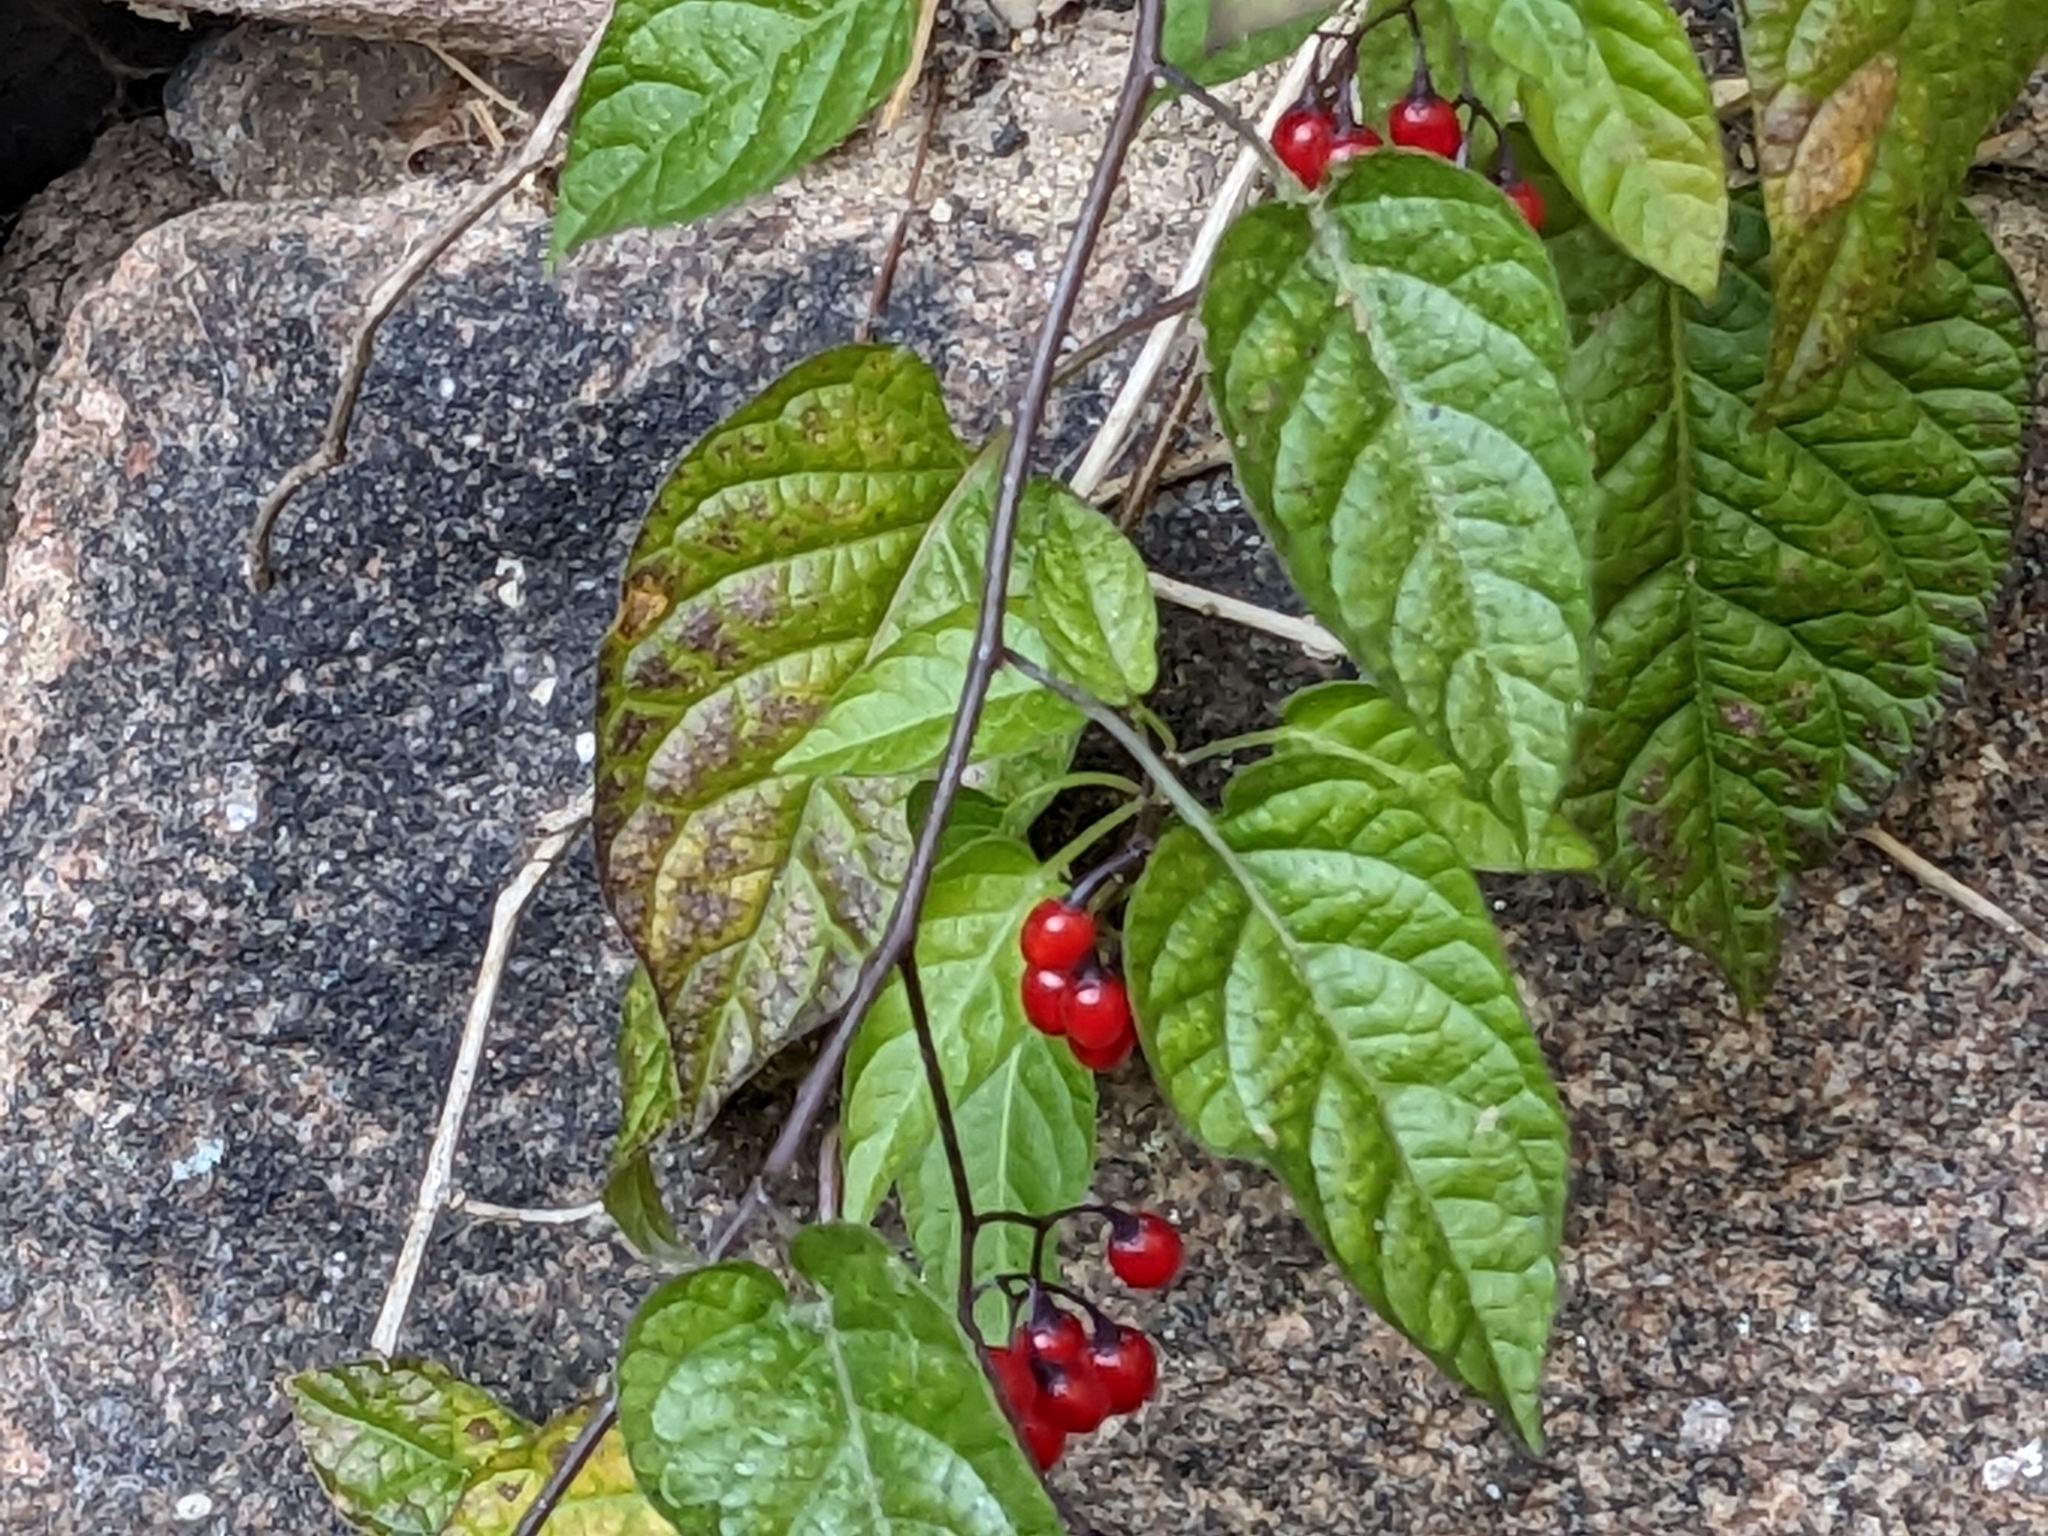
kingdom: Plantae
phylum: Tracheophyta
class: Magnoliopsida
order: Solanales
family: Solanaceae
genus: Solanum
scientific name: Solanum dulcamara
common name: Climbing nightshade
